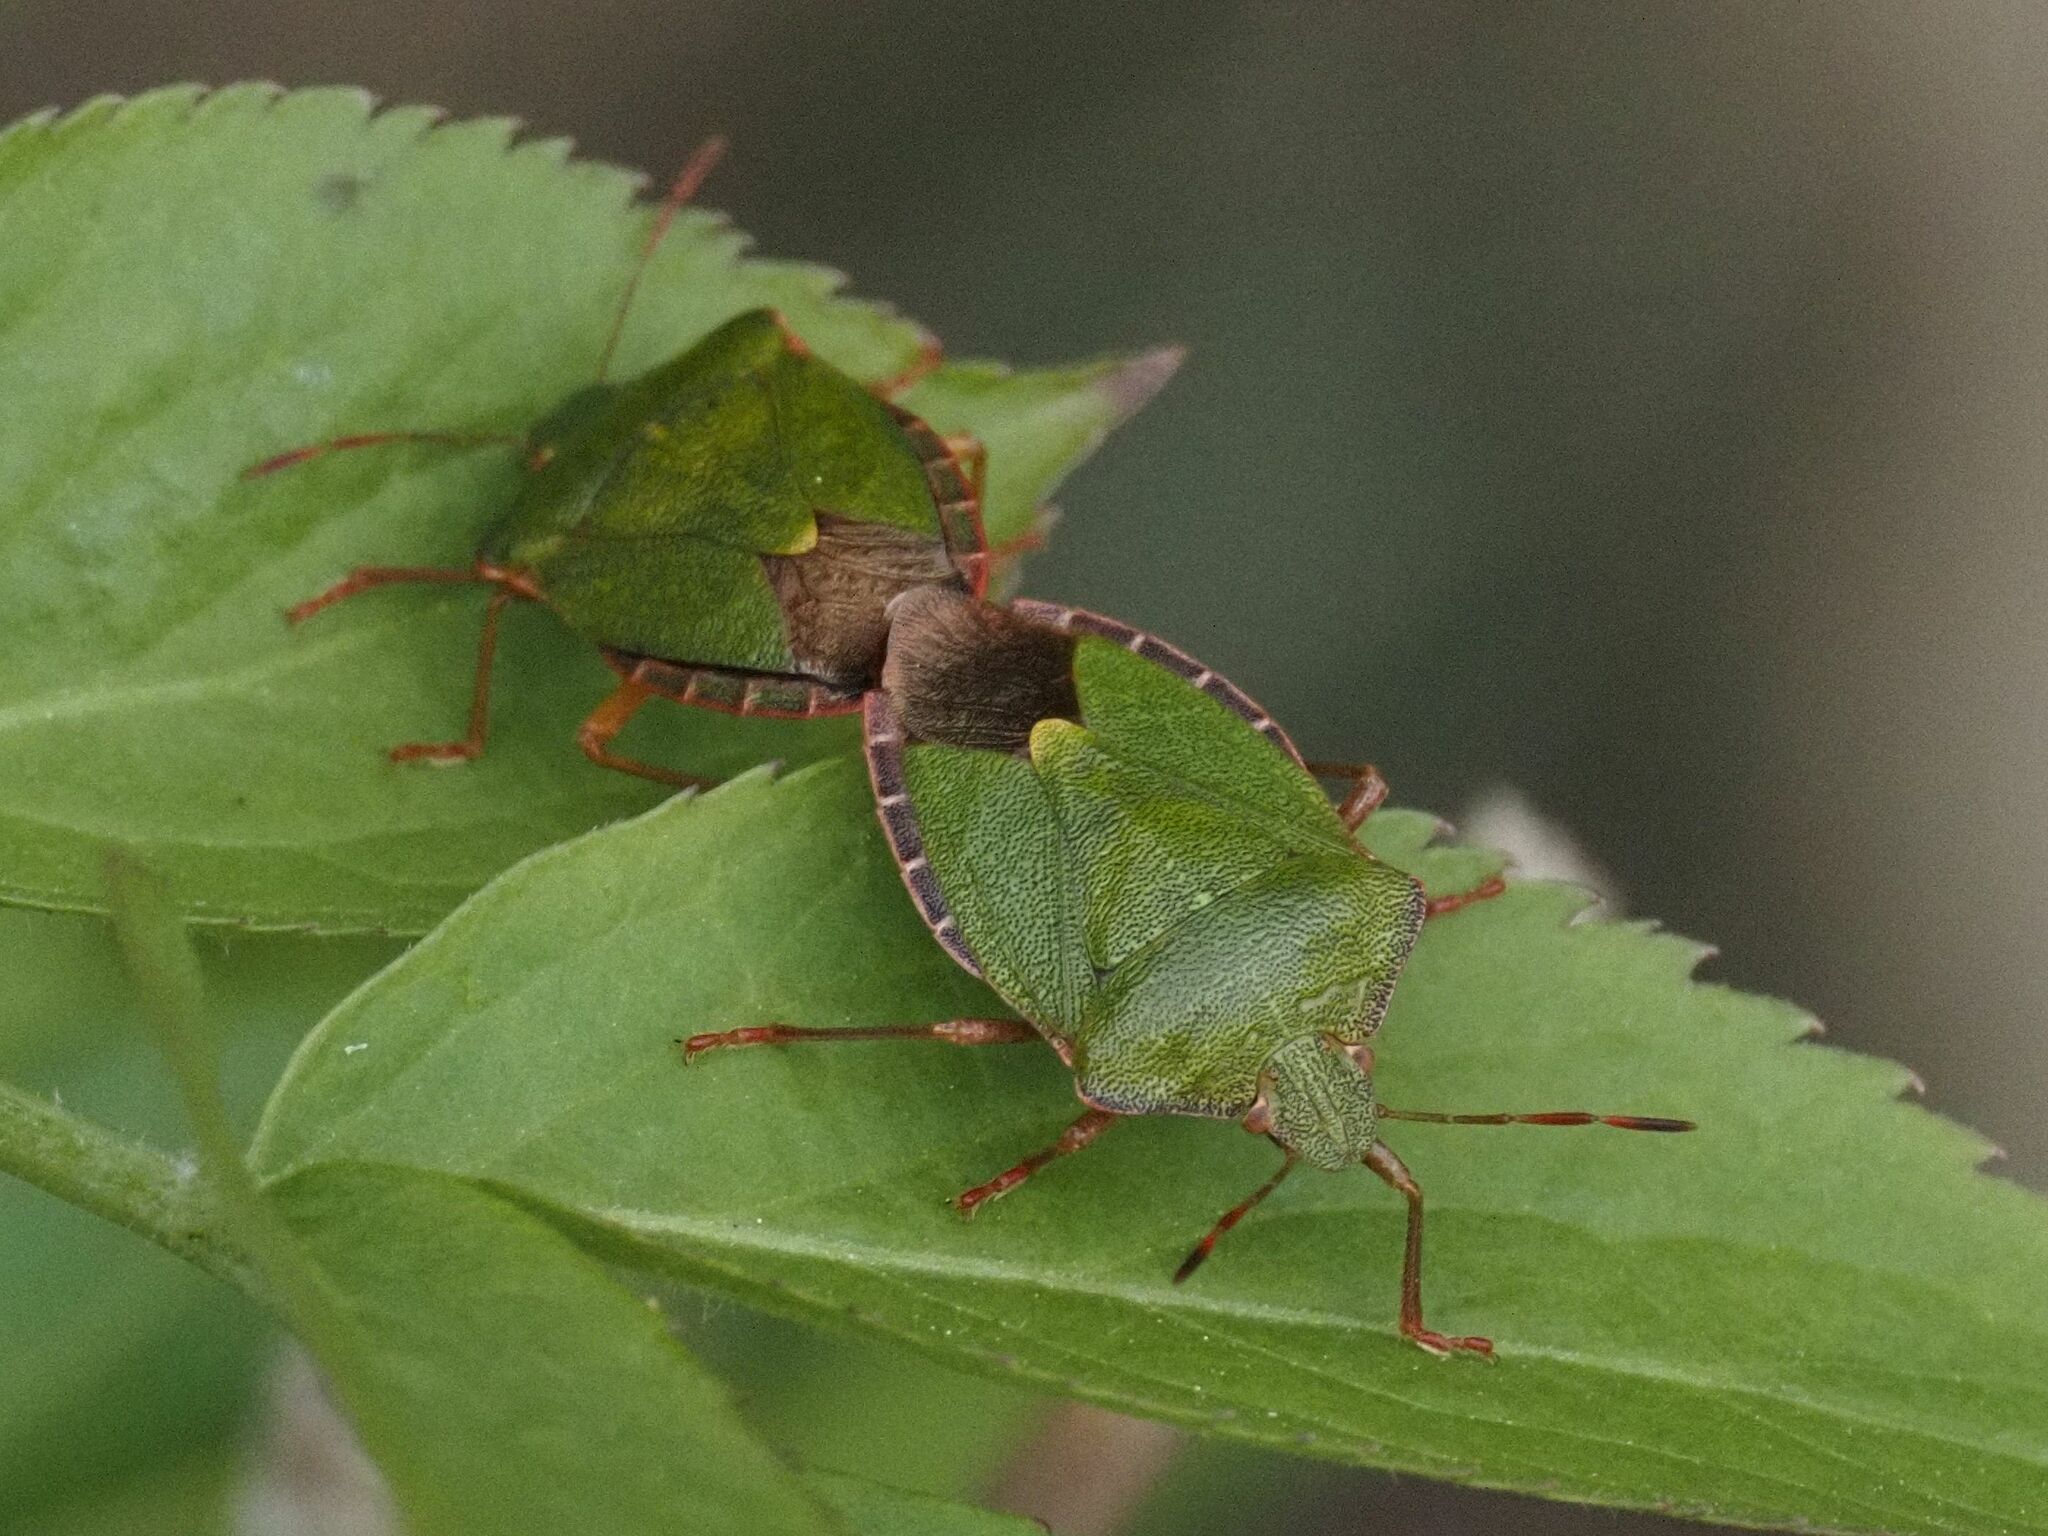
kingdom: Animalia
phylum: Arthropoda
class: Insecta
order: Hemiptera
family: Pentatomidae
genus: Palomena
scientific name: Palomena prasina
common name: Green shieldbug
